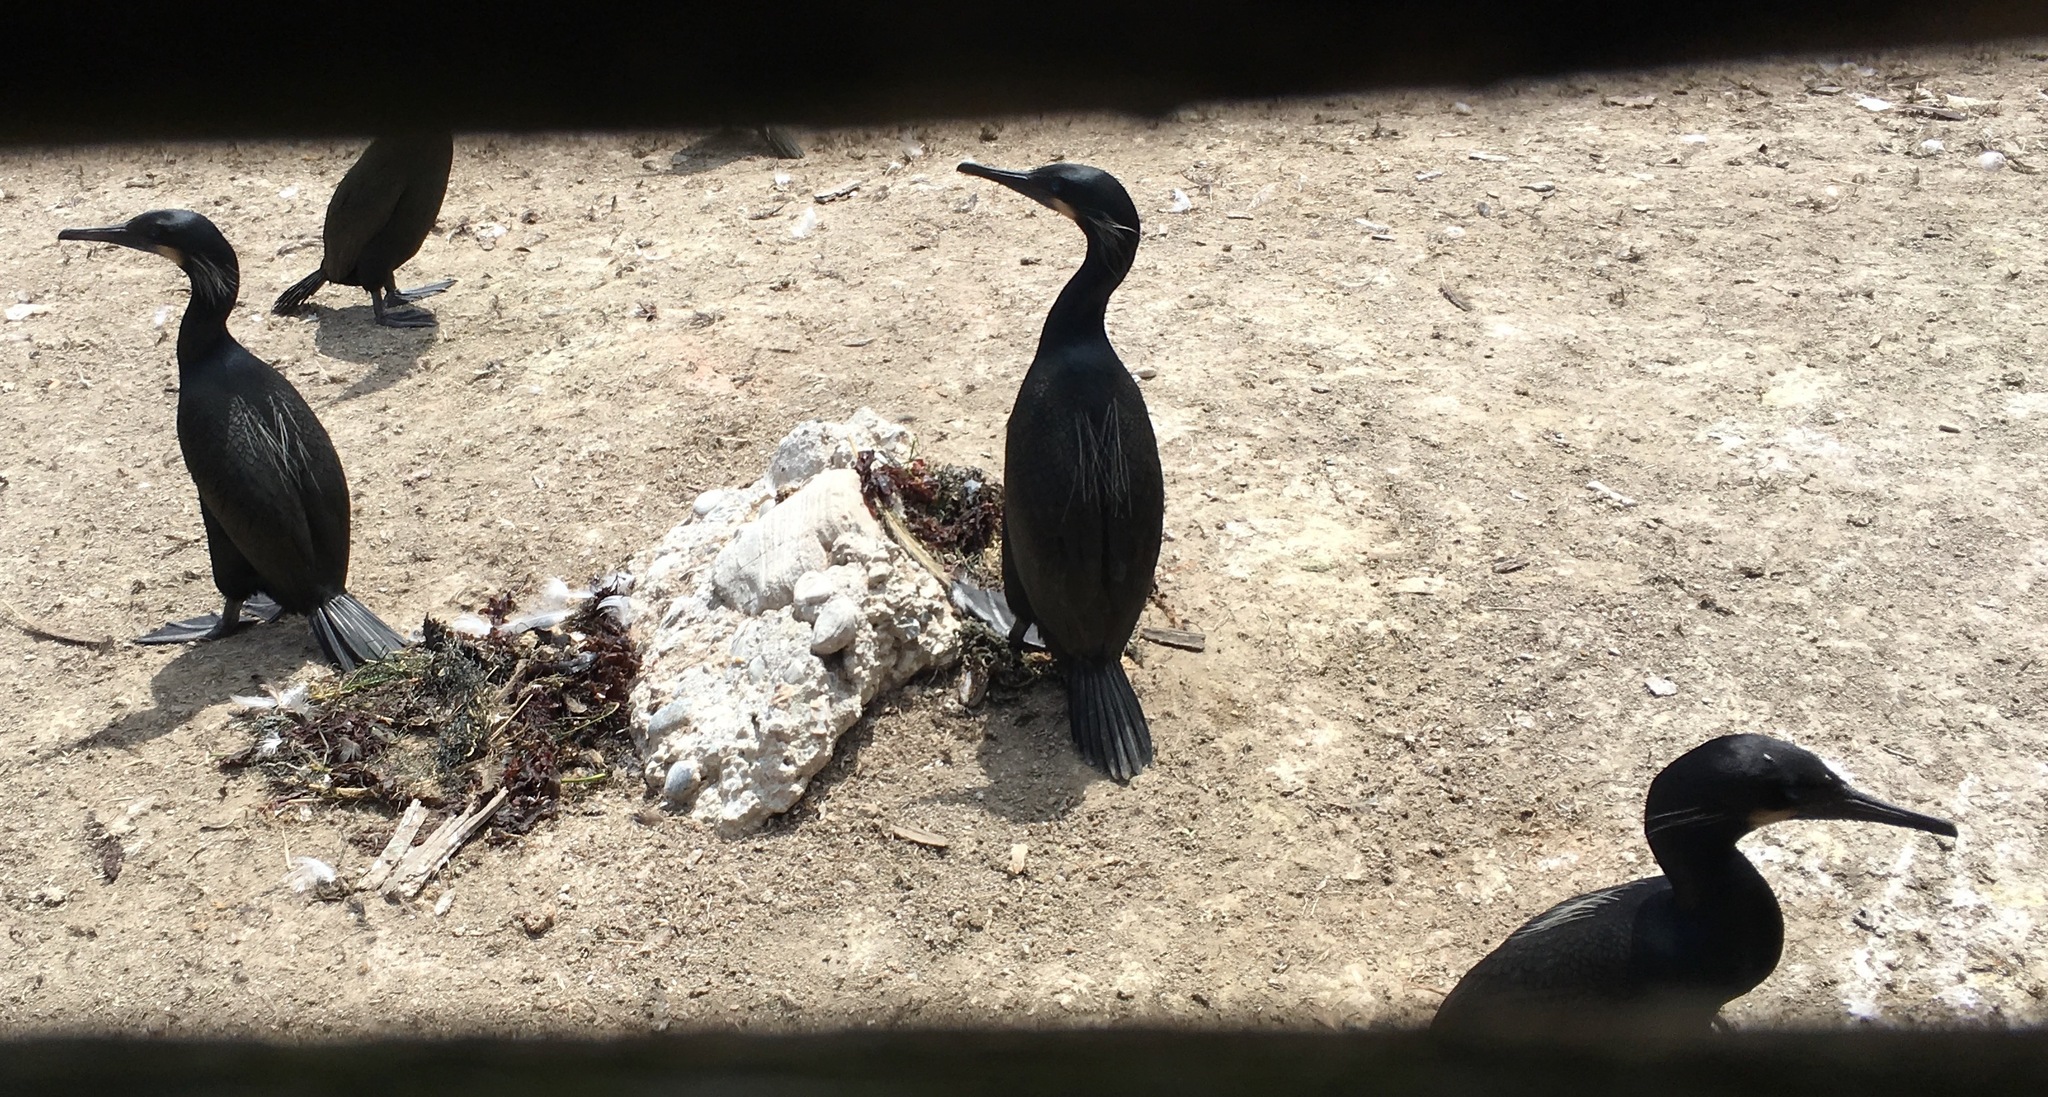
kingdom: Animalia
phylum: Chordata
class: Aves
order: Suliformes
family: Phalacrocoracidae
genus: Urile
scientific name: Urile penicillatus
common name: Brandt's cormorant
